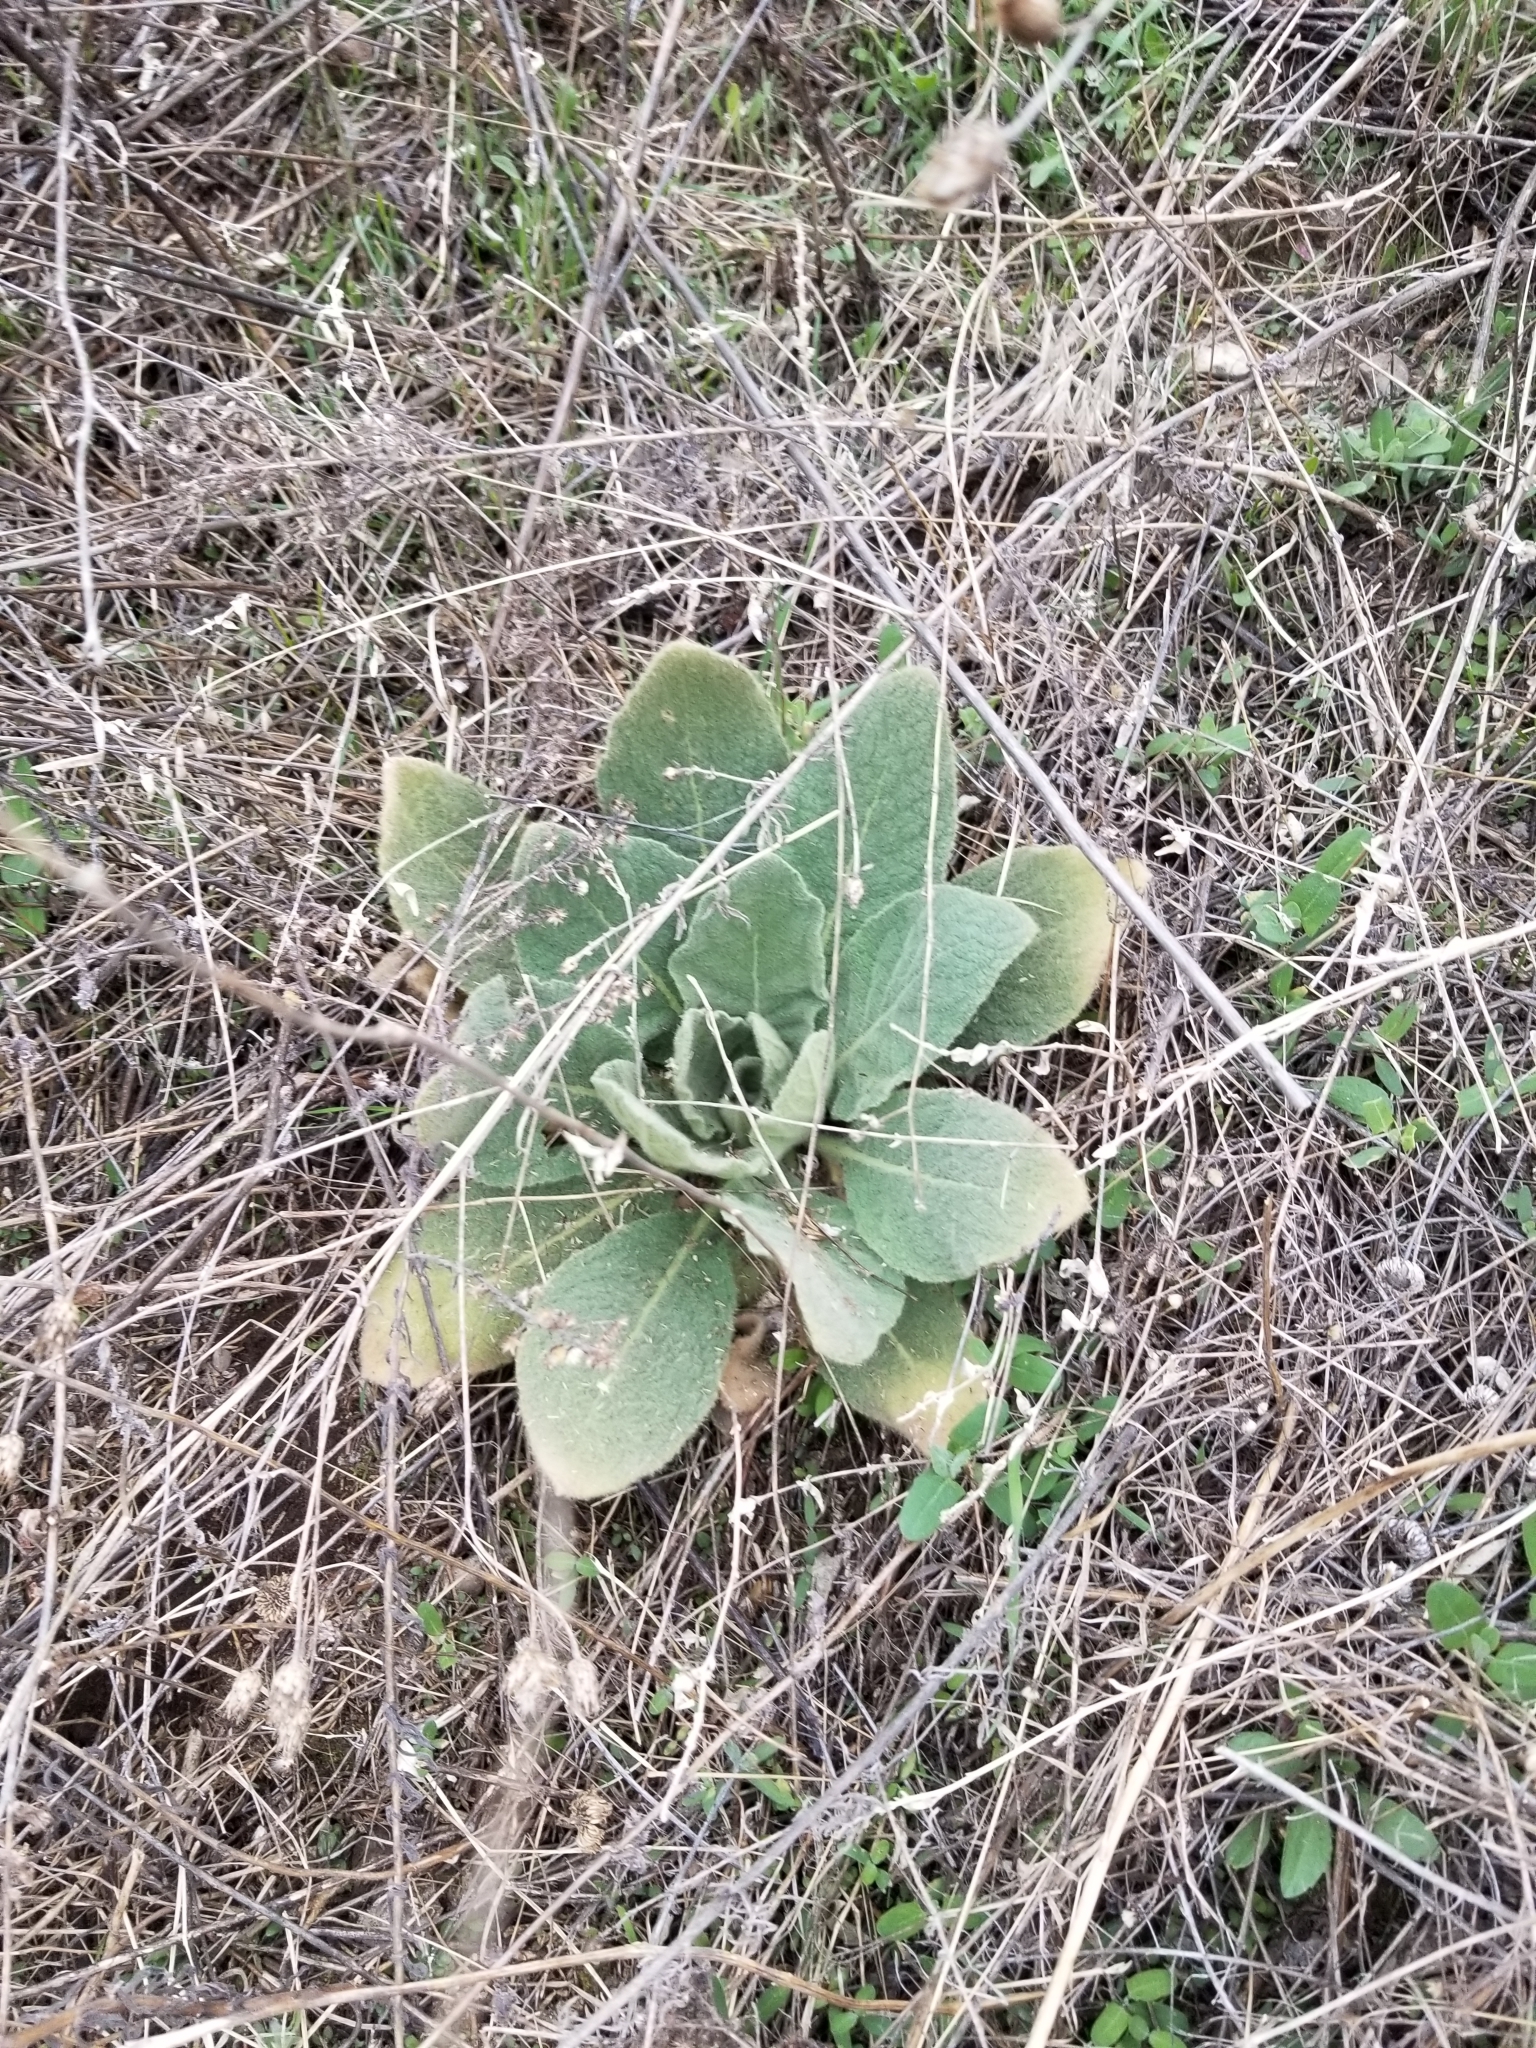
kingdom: Plantae
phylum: Tracheophyta
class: Magnoliopsida
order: Lamiales
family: Scrophulariaceae
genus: Verbascum
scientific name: Verbascum thapsus
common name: Common mullein
